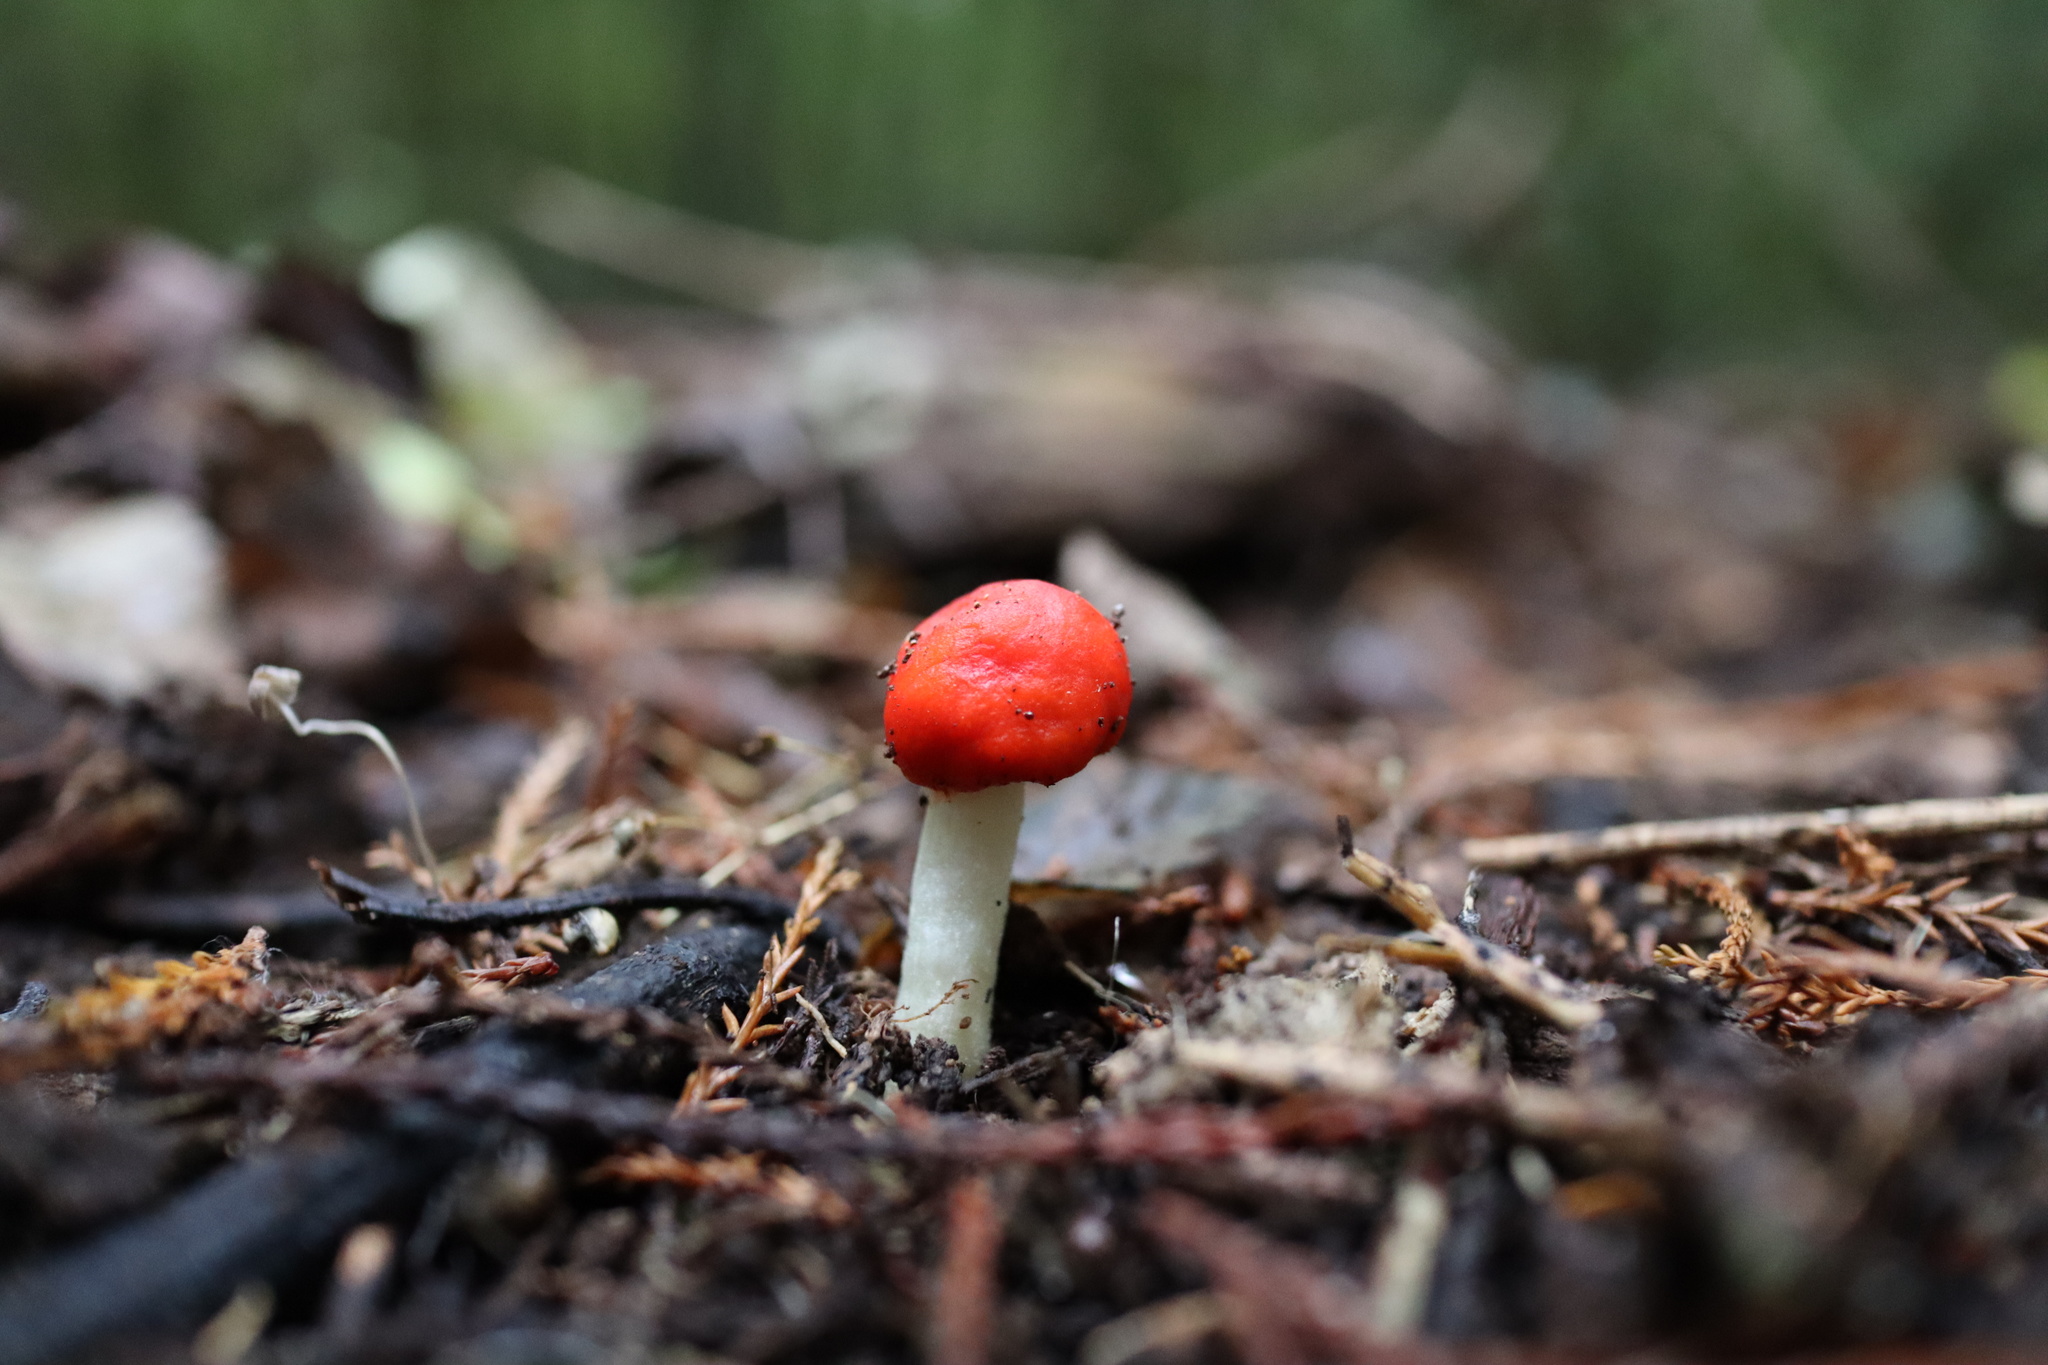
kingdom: Fungi
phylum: Basidiomycota
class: Agaricomycetes
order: Agaricales
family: Strophariaceae
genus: Leratiomyces
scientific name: Leratiomyces erythrocephalus
